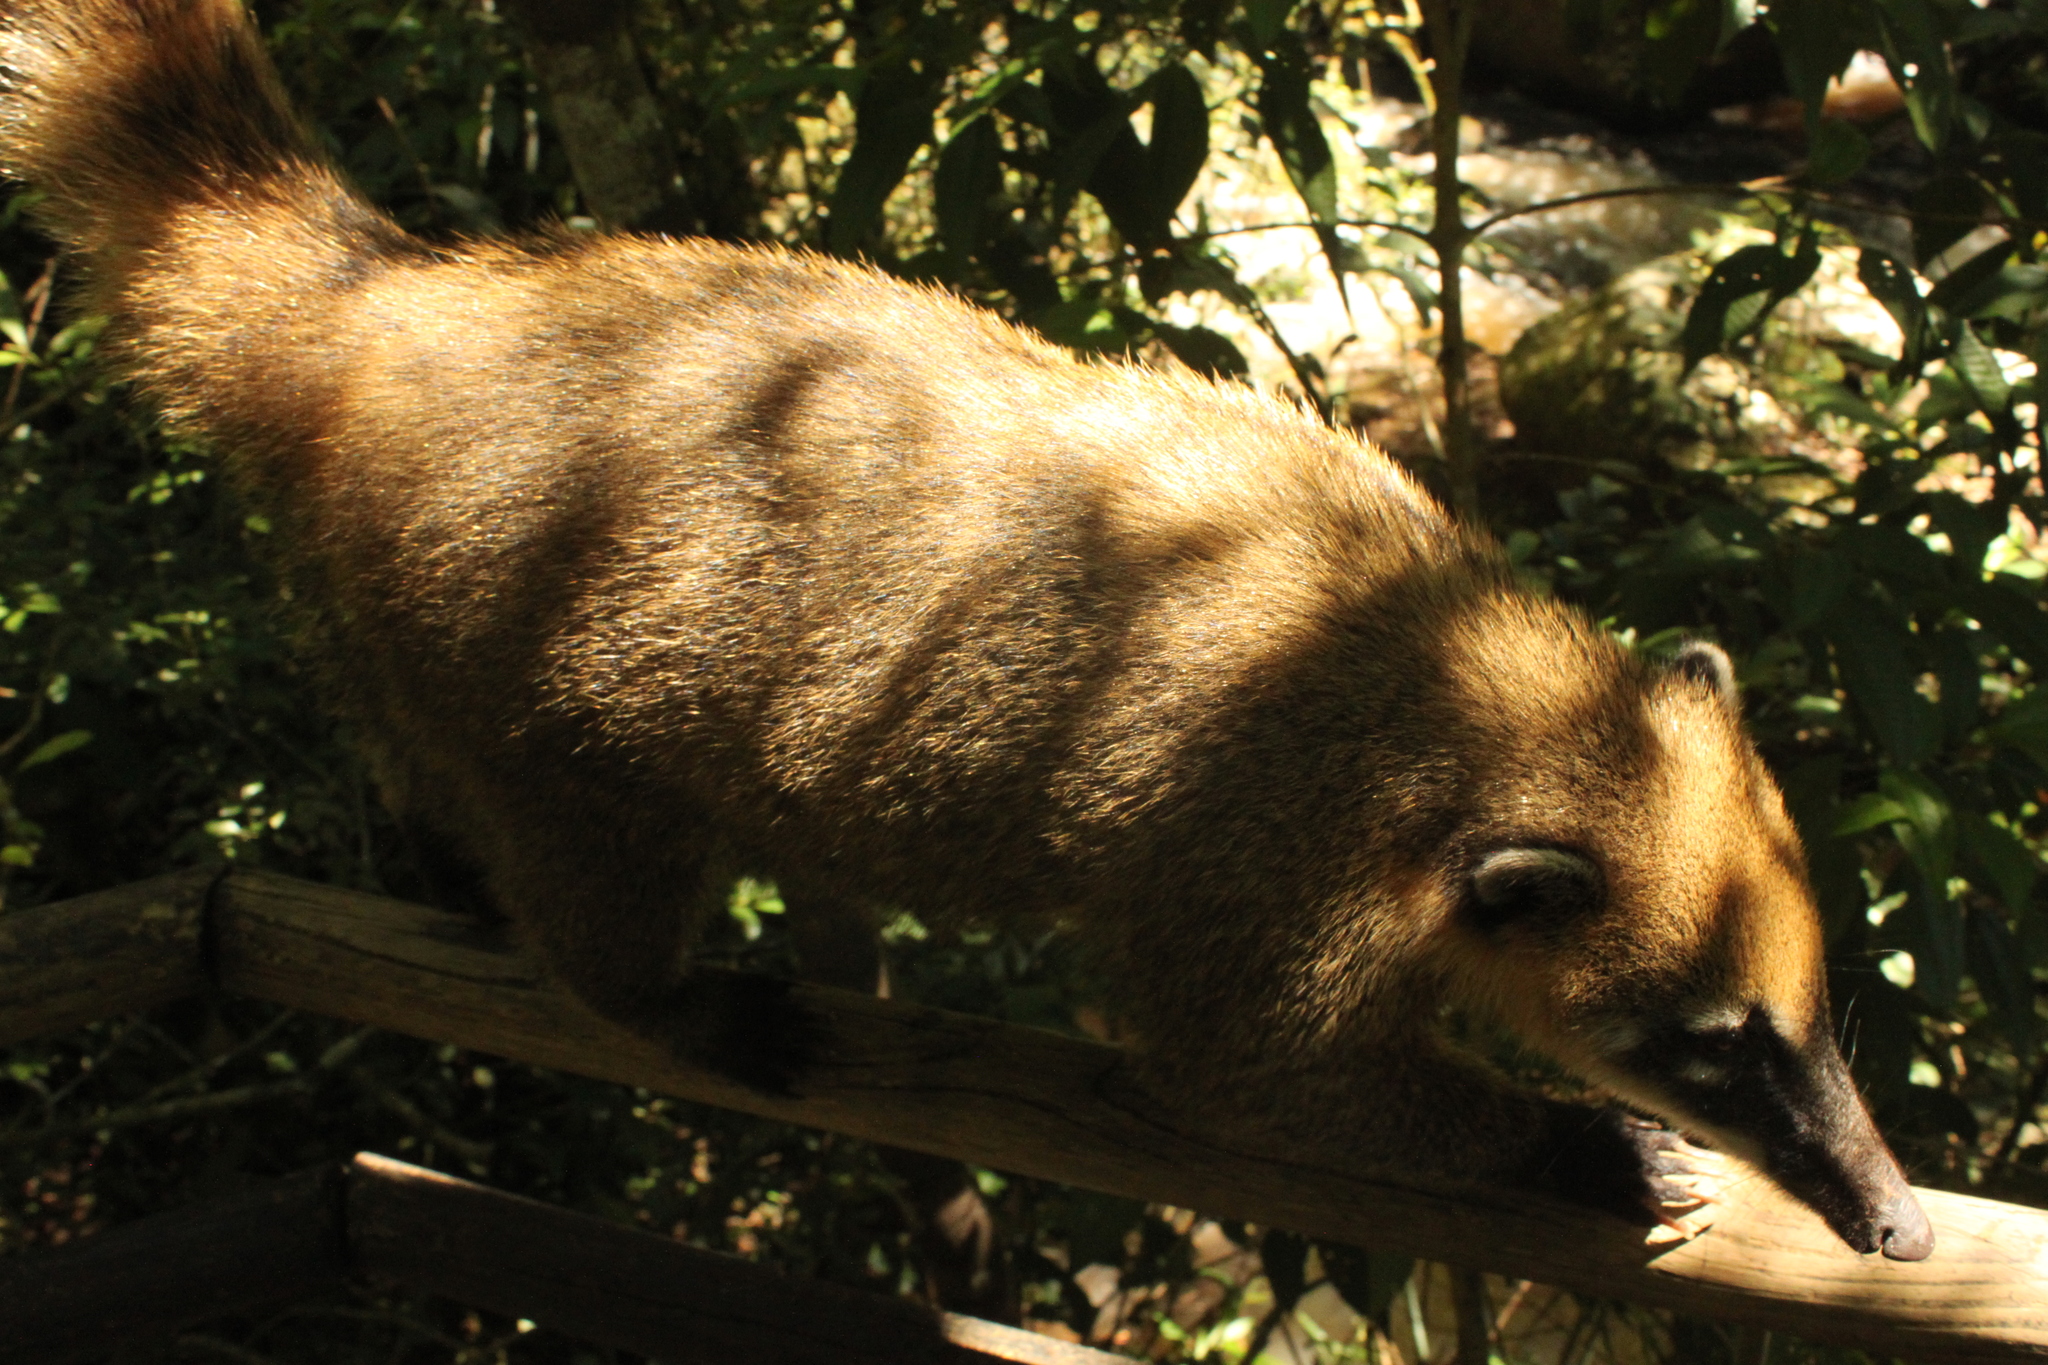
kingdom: Animalia
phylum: Chordata
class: Mammalia
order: Carnivora
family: Procyonidae
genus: Nasua
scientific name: Nasua nasua
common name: South american coati
